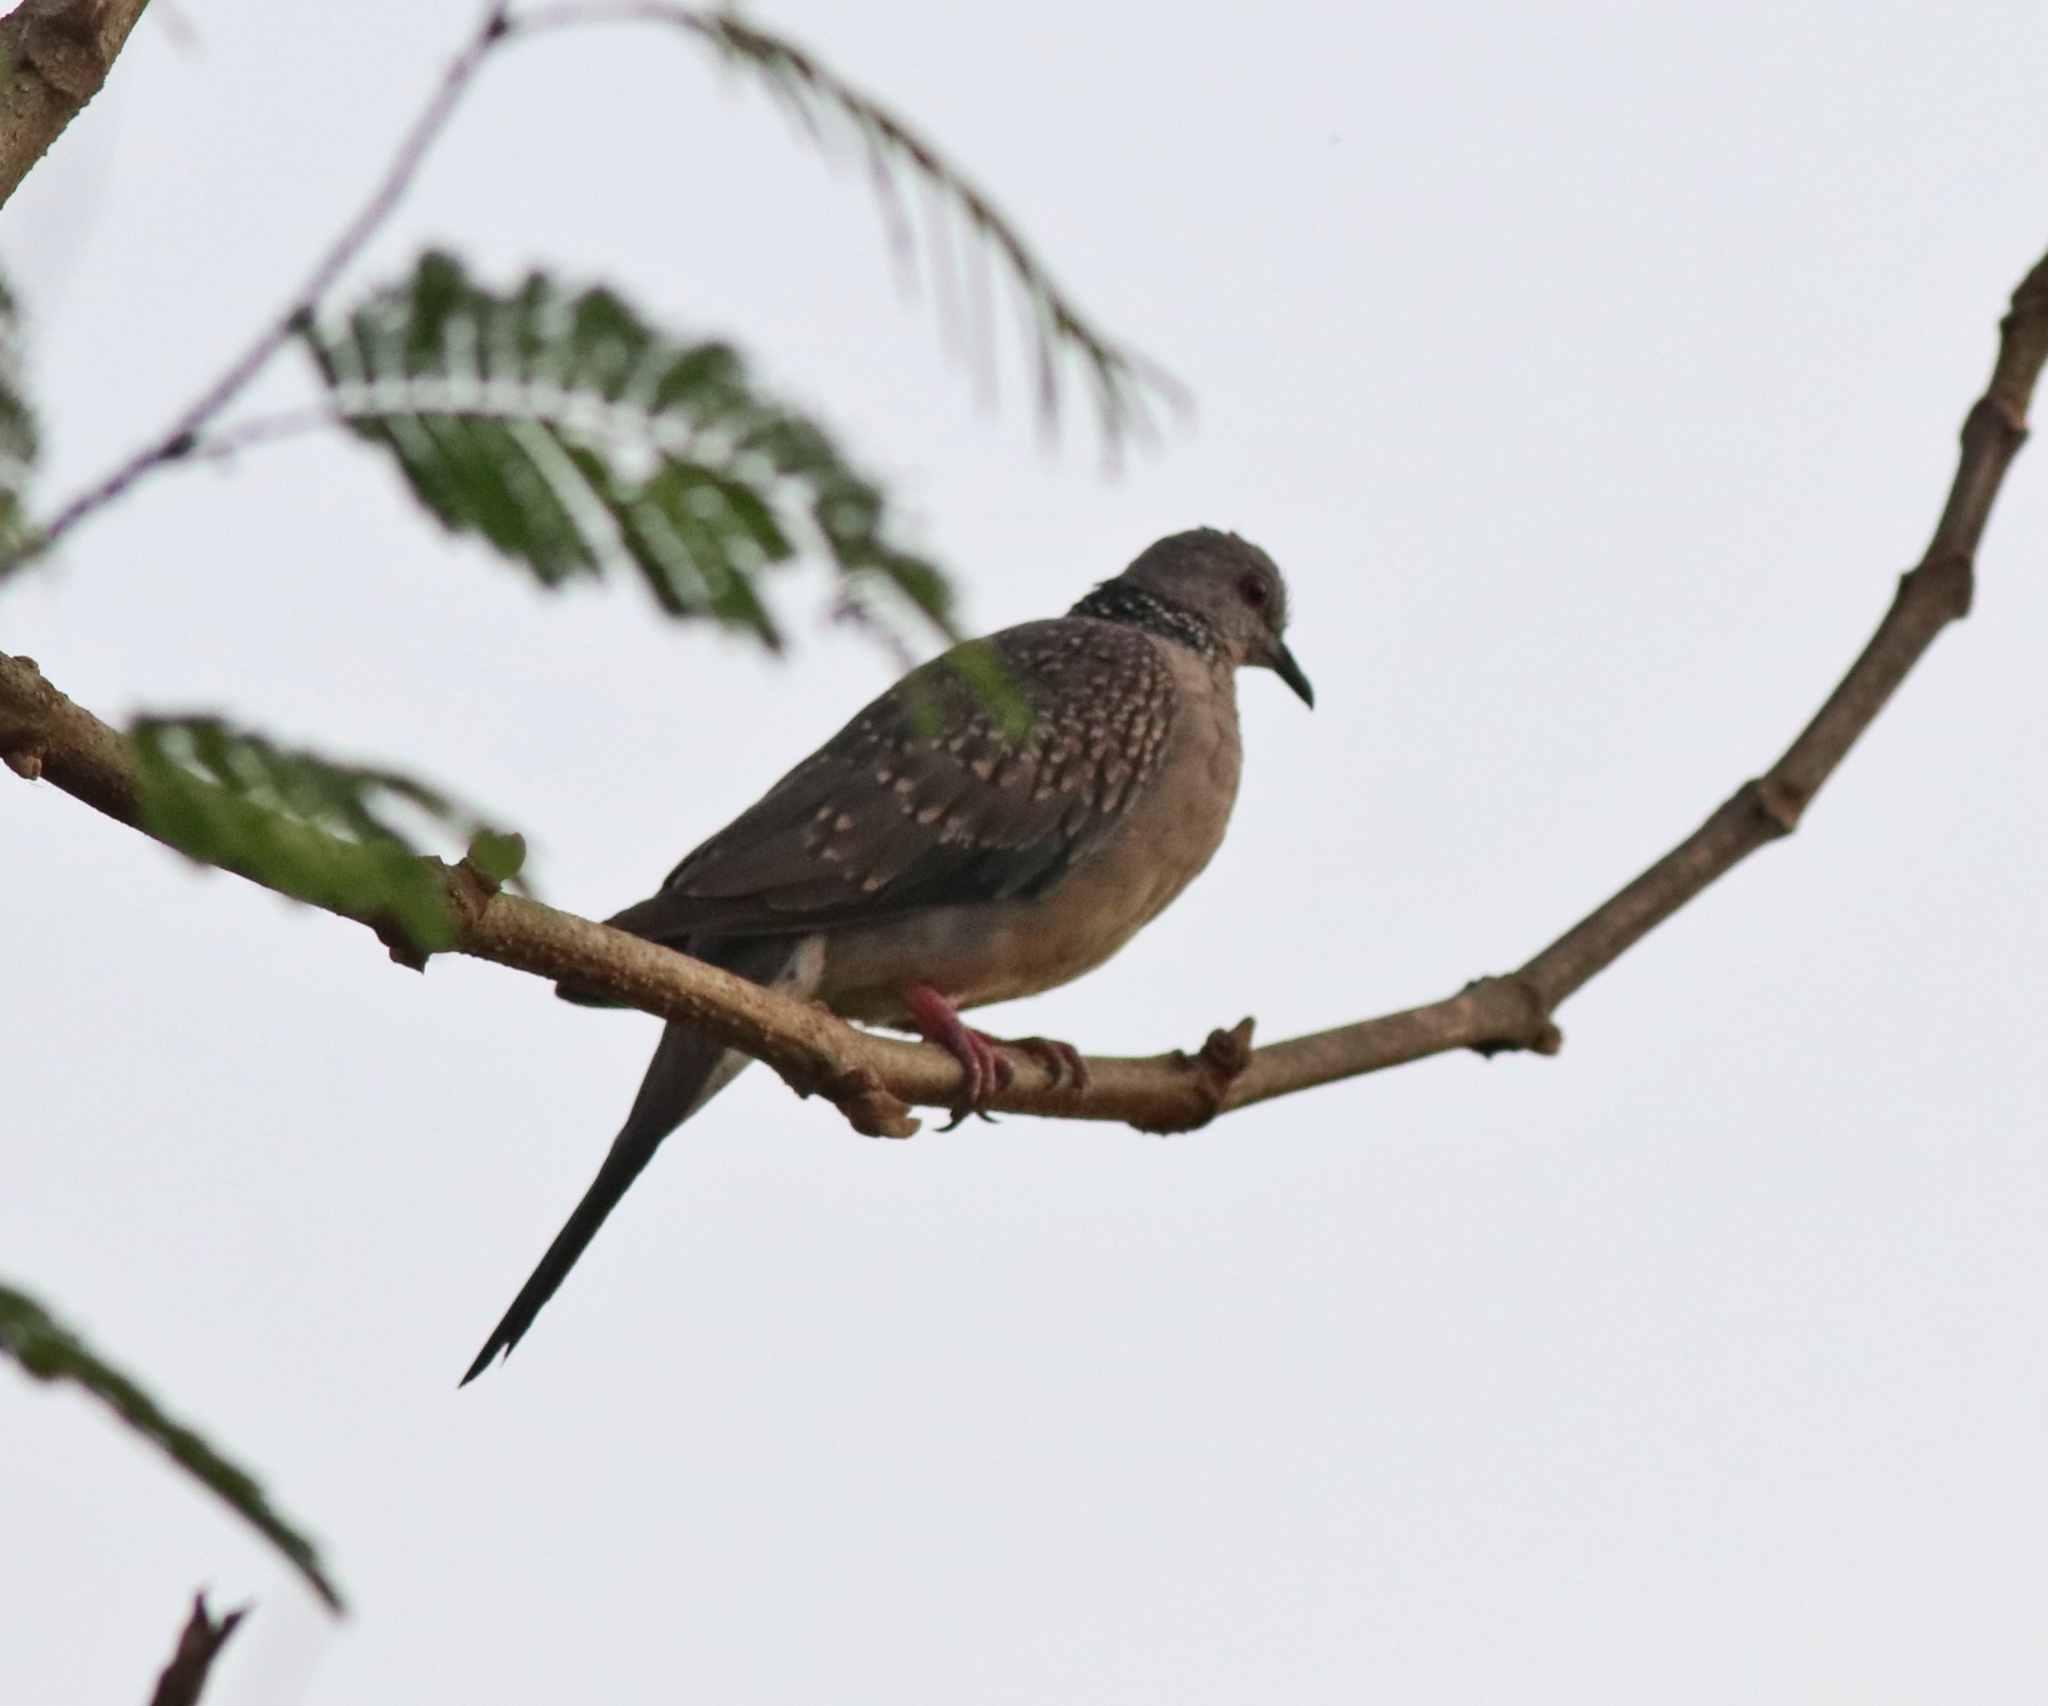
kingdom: Animalia
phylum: Chordata
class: Aves
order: Columbiformes
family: Columbidae
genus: Spilopelia
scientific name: Spilopelia chinensis
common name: Spotted dove
